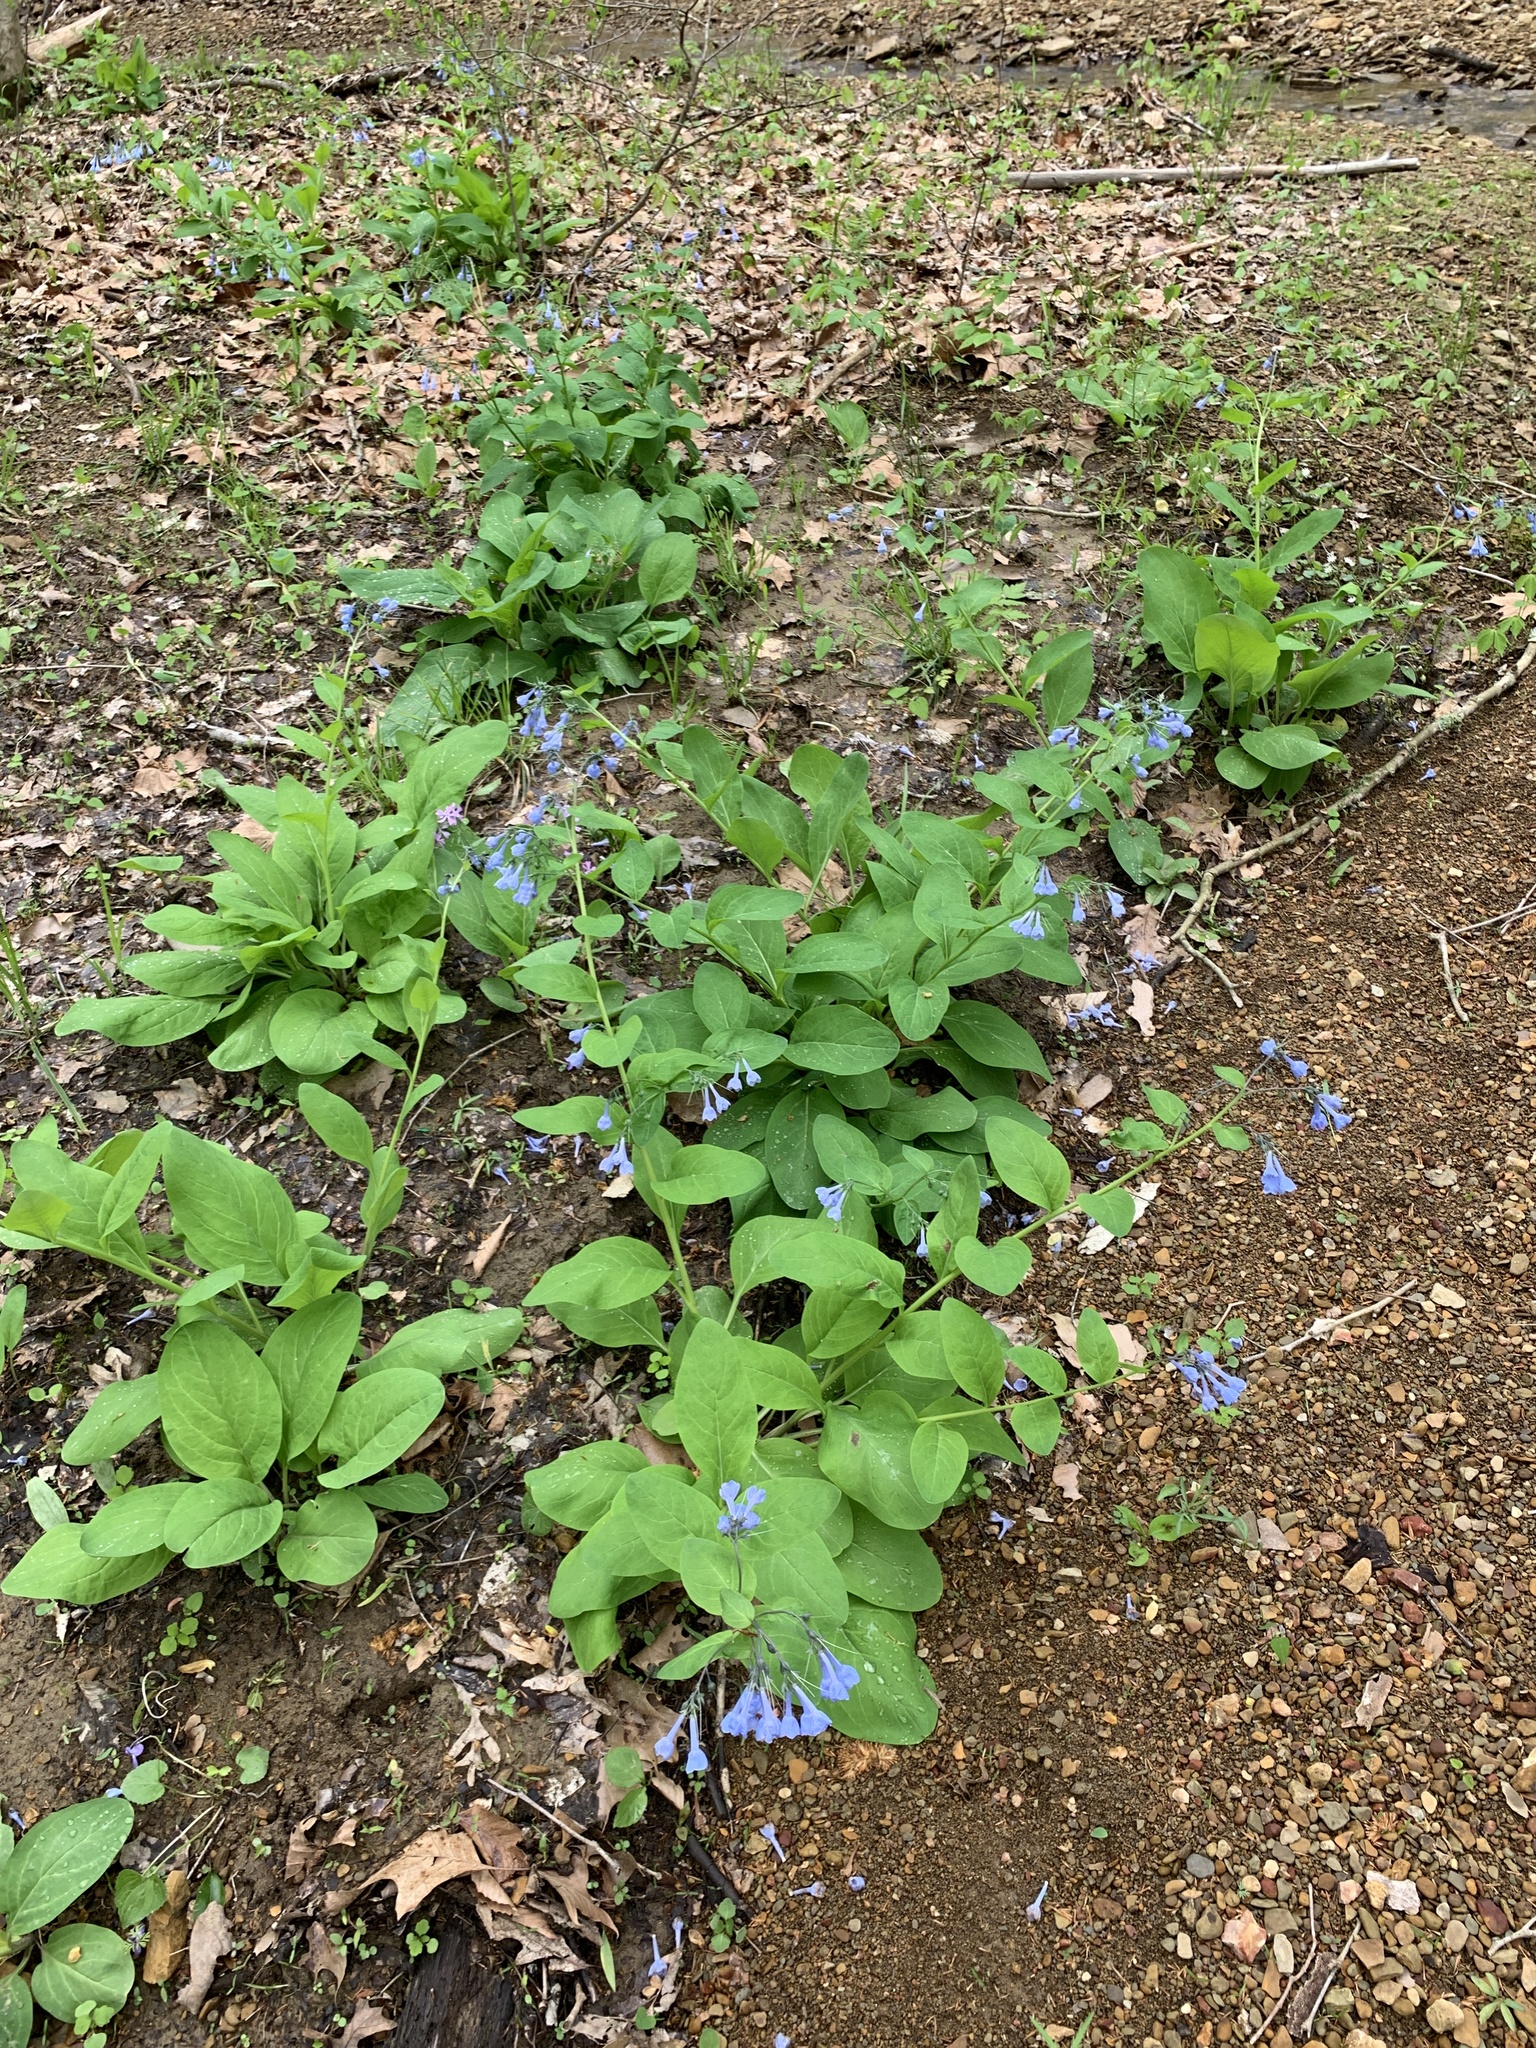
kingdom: Plantae
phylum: Tracheophyta
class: Magnoliopsida
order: Boraginales
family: Boraginaceae
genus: Mertensia
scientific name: Mertensia virginica
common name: Virginia bluebells
